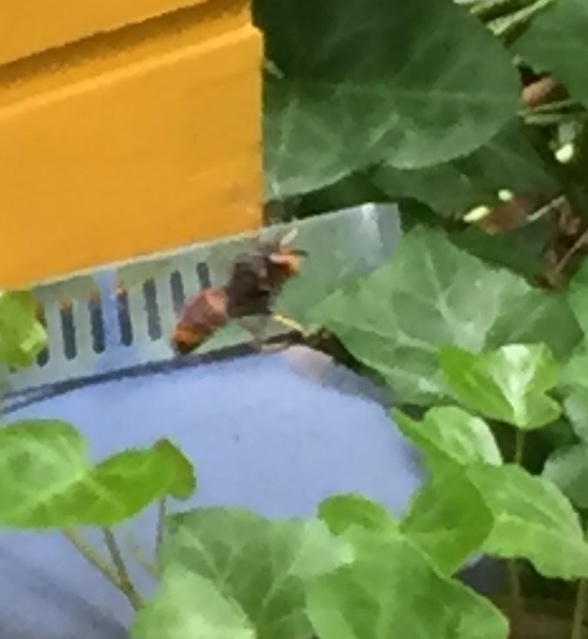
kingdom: Animalia
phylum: Arthropoda
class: Insecta
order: Hymenoptera
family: Vespidae
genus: Vespa
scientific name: Vespa velutina
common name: Asian hornet
